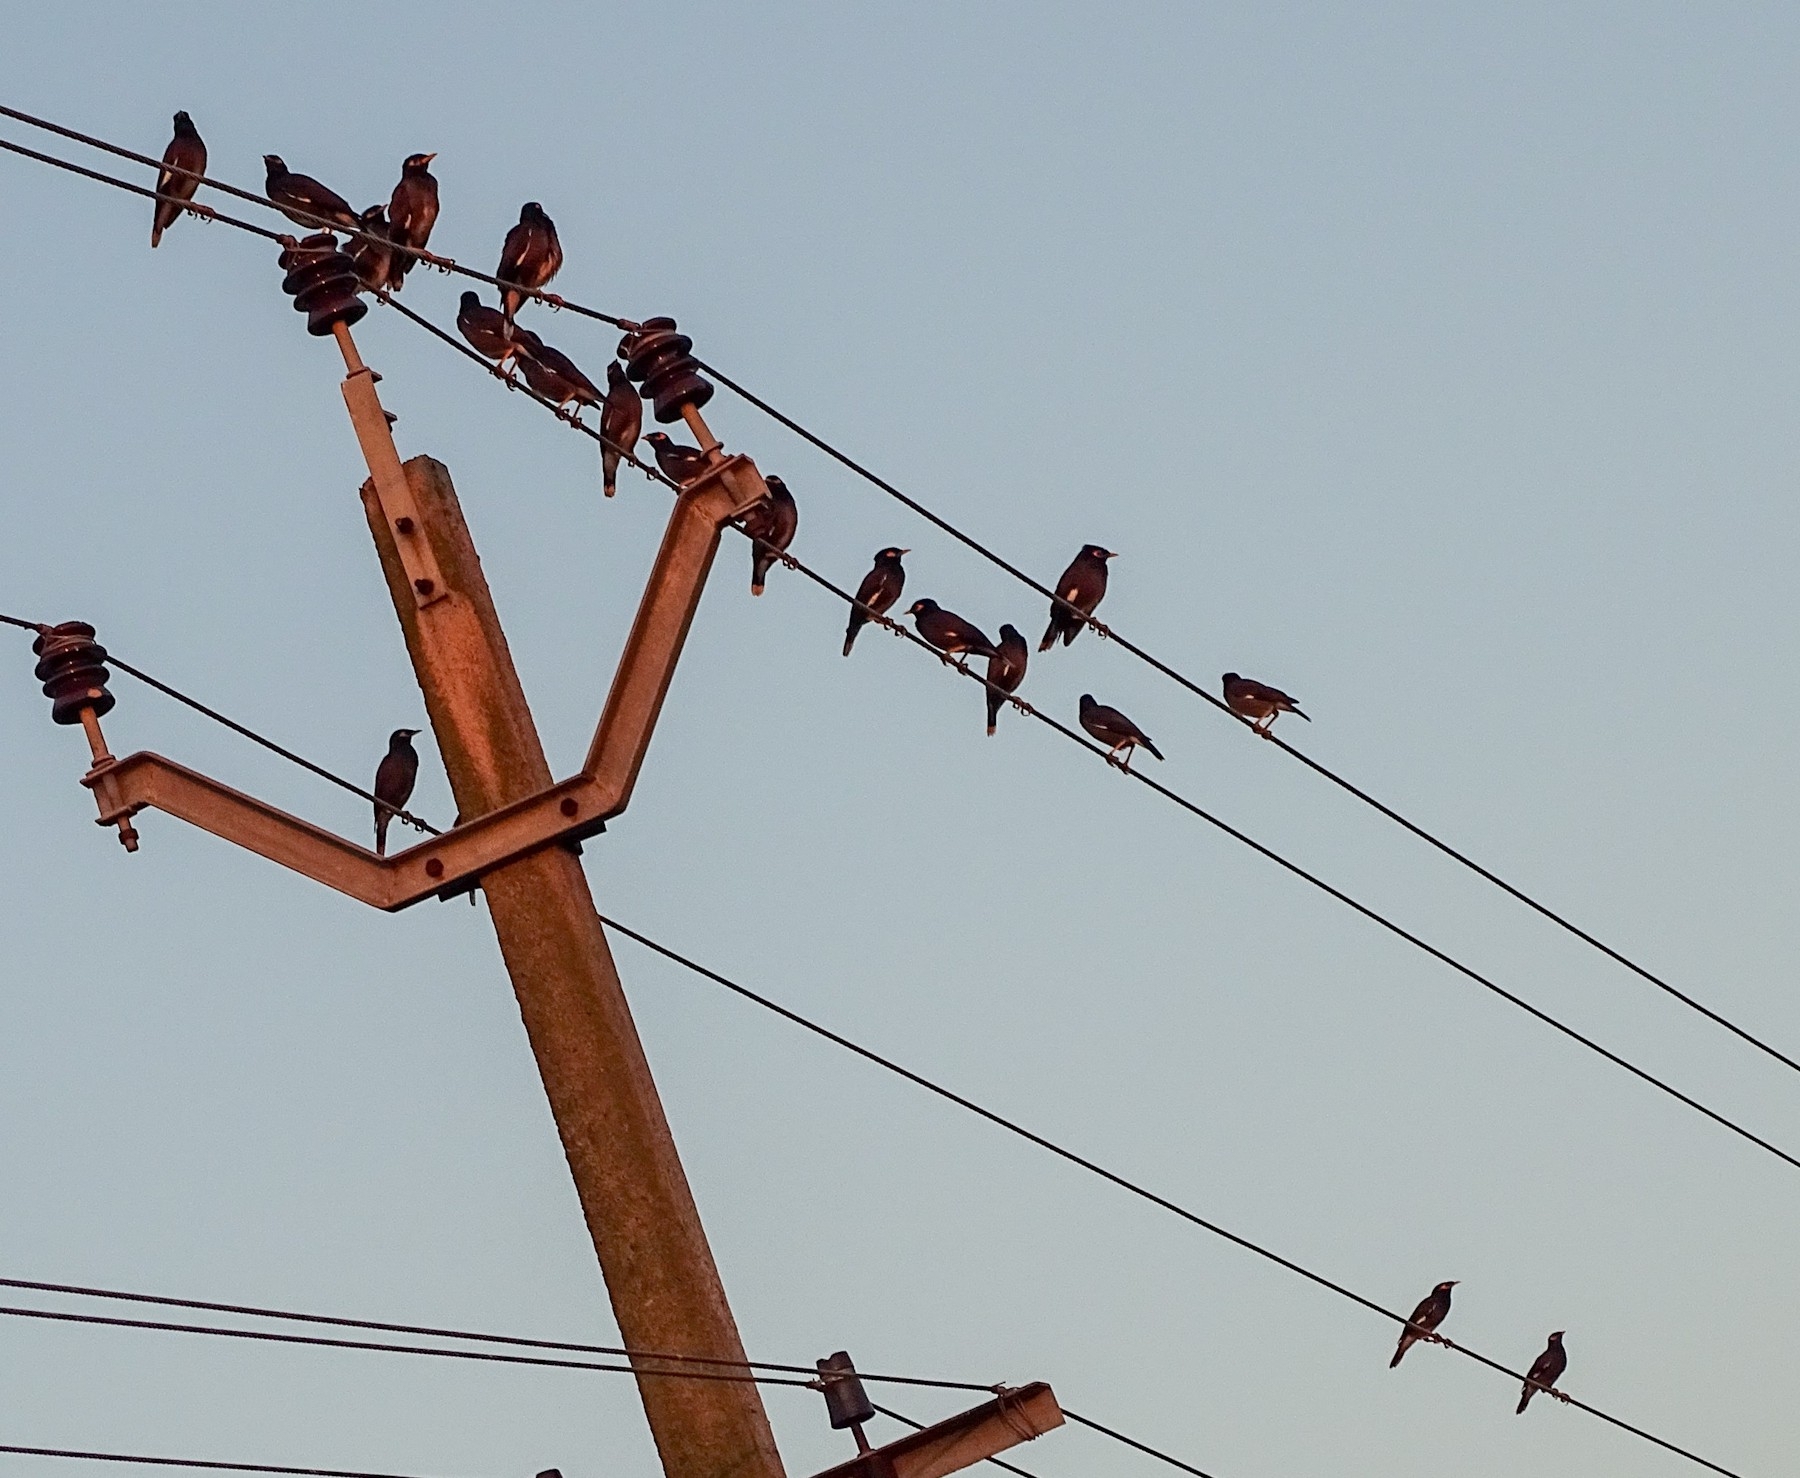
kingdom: Animalia
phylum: Chordata
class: Aves
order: Passeriformes
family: Sturnidae
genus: Acridotheres
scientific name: Acridotheres tristis
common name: Common myna
